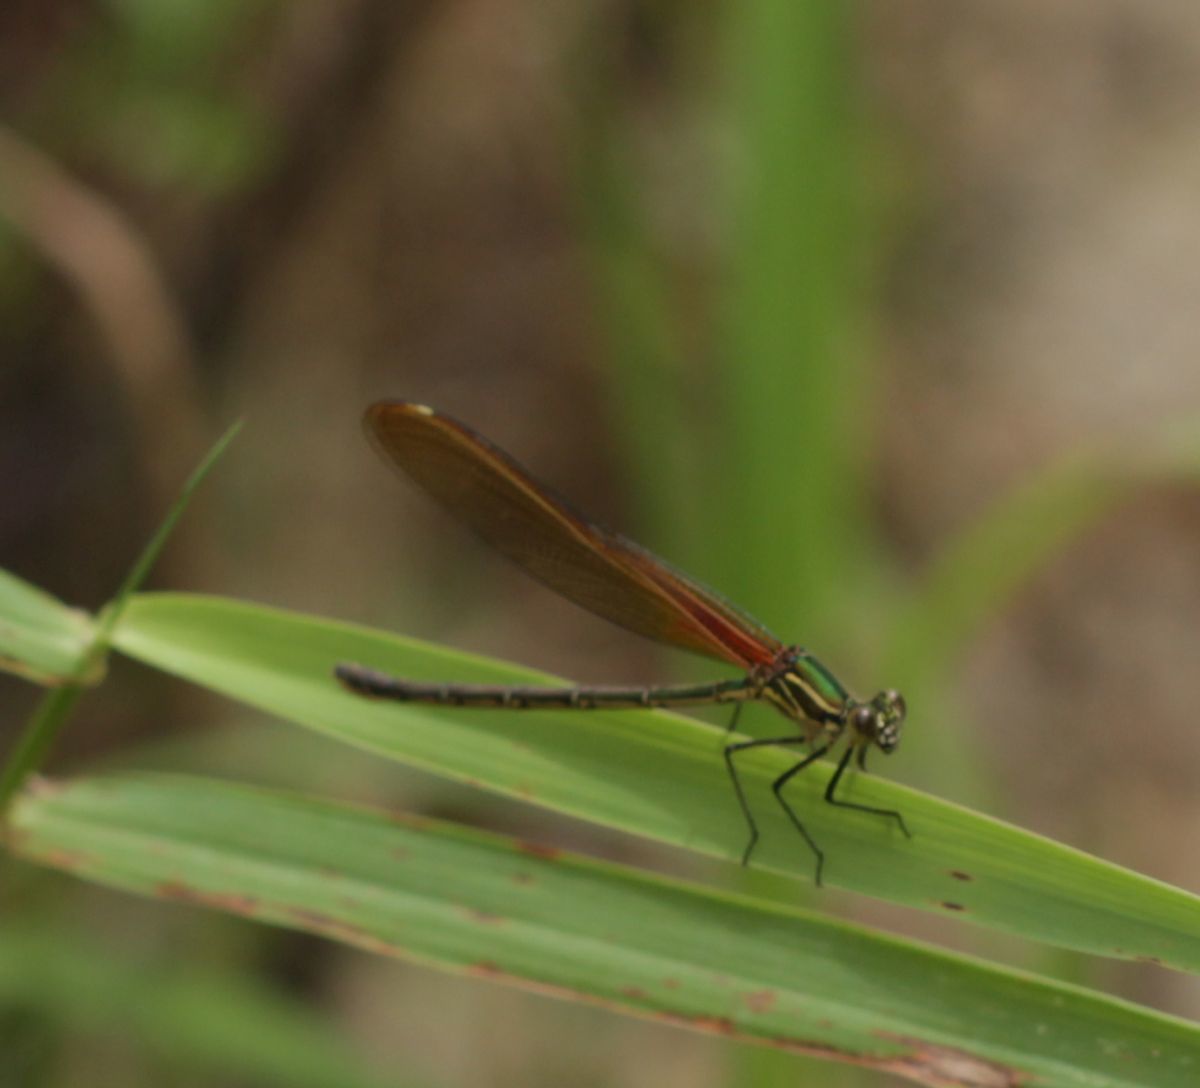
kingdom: Animalia
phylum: Arthropoda
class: Insecta
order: Odonata
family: Calopterygidae
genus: Hetaerina
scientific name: Hetaerina americana
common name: American rubyspot
